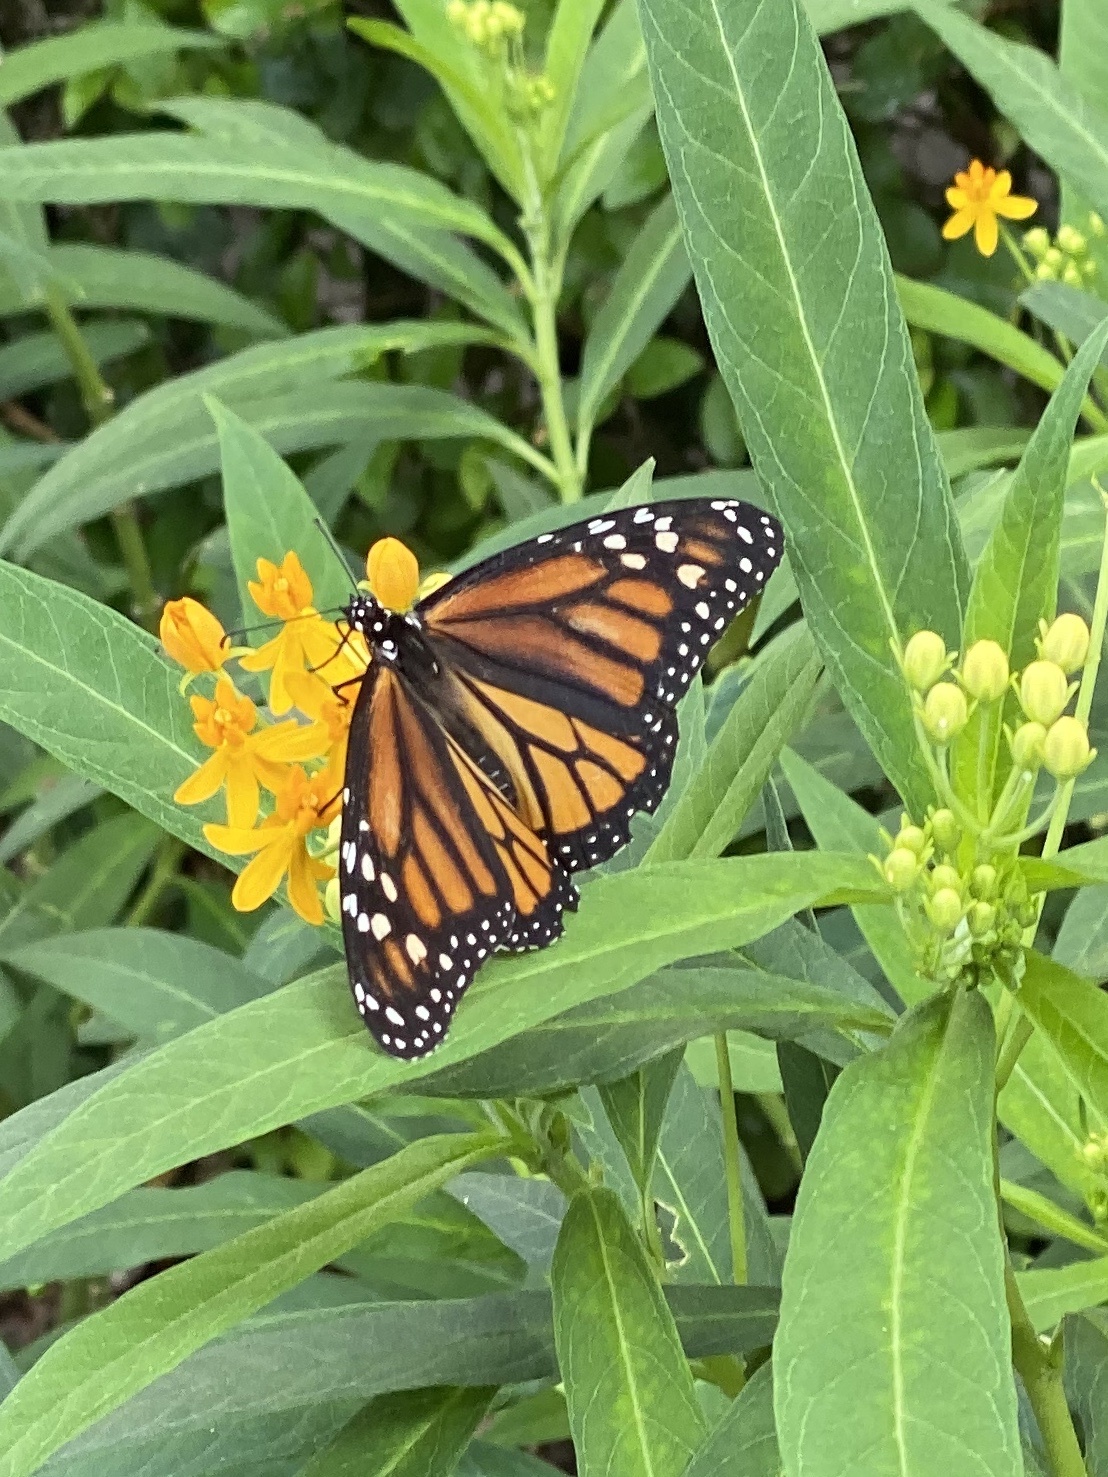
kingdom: Animalia
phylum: Arthropoda
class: Insecta
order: Lepidoptera
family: Nymphalidae
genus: Danaus
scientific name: Danaus plexippus
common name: Monarch
